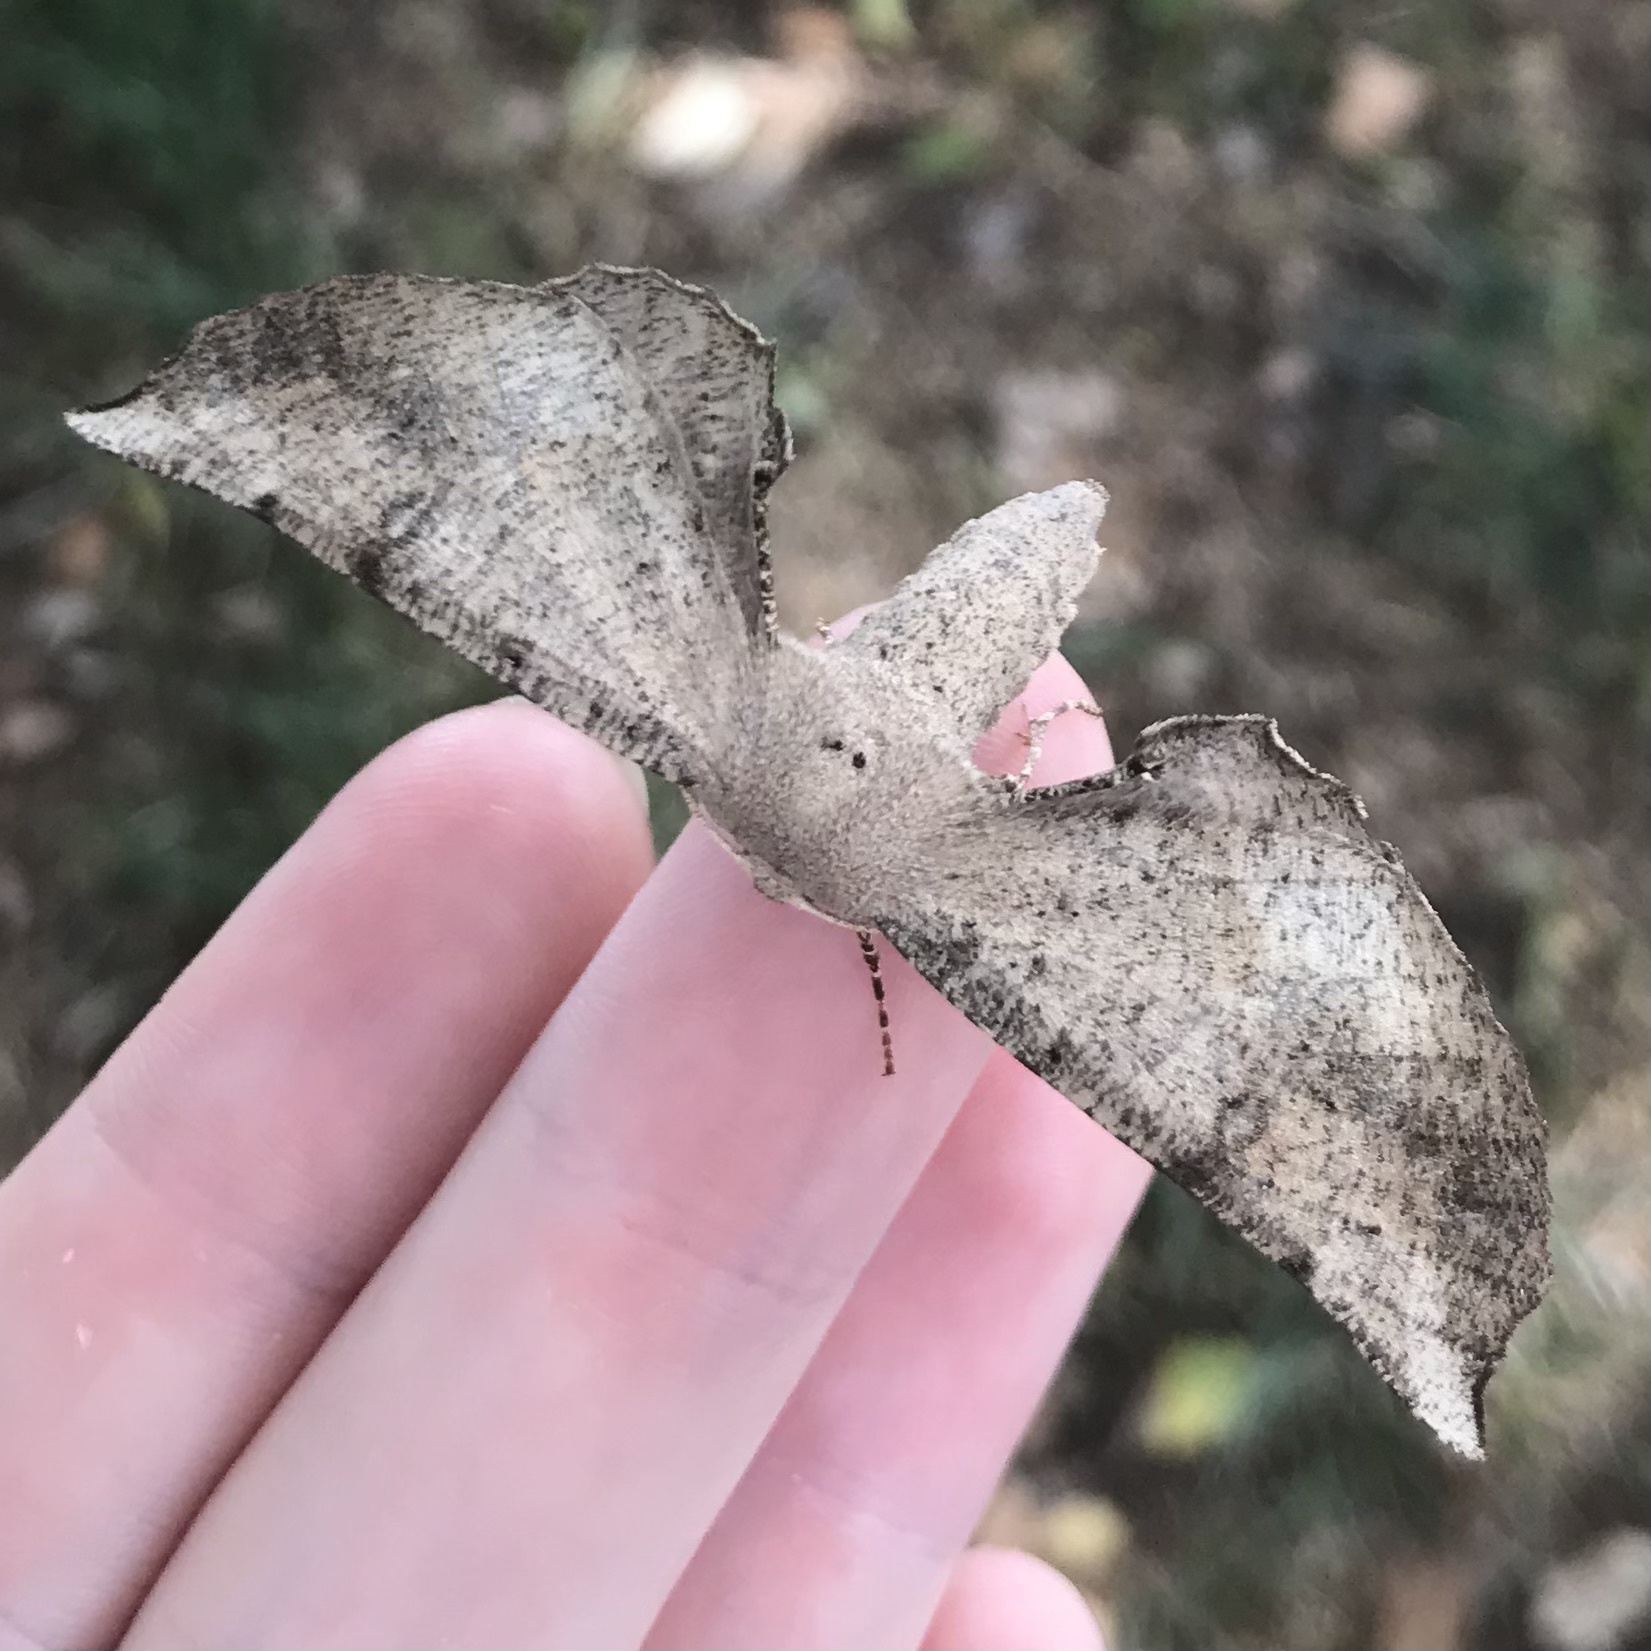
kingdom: Animalia
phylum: Arthropoda
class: Insecta
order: Lepidoptera
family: Geometridae
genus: Circopetes
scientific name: Circopetes obtusata
